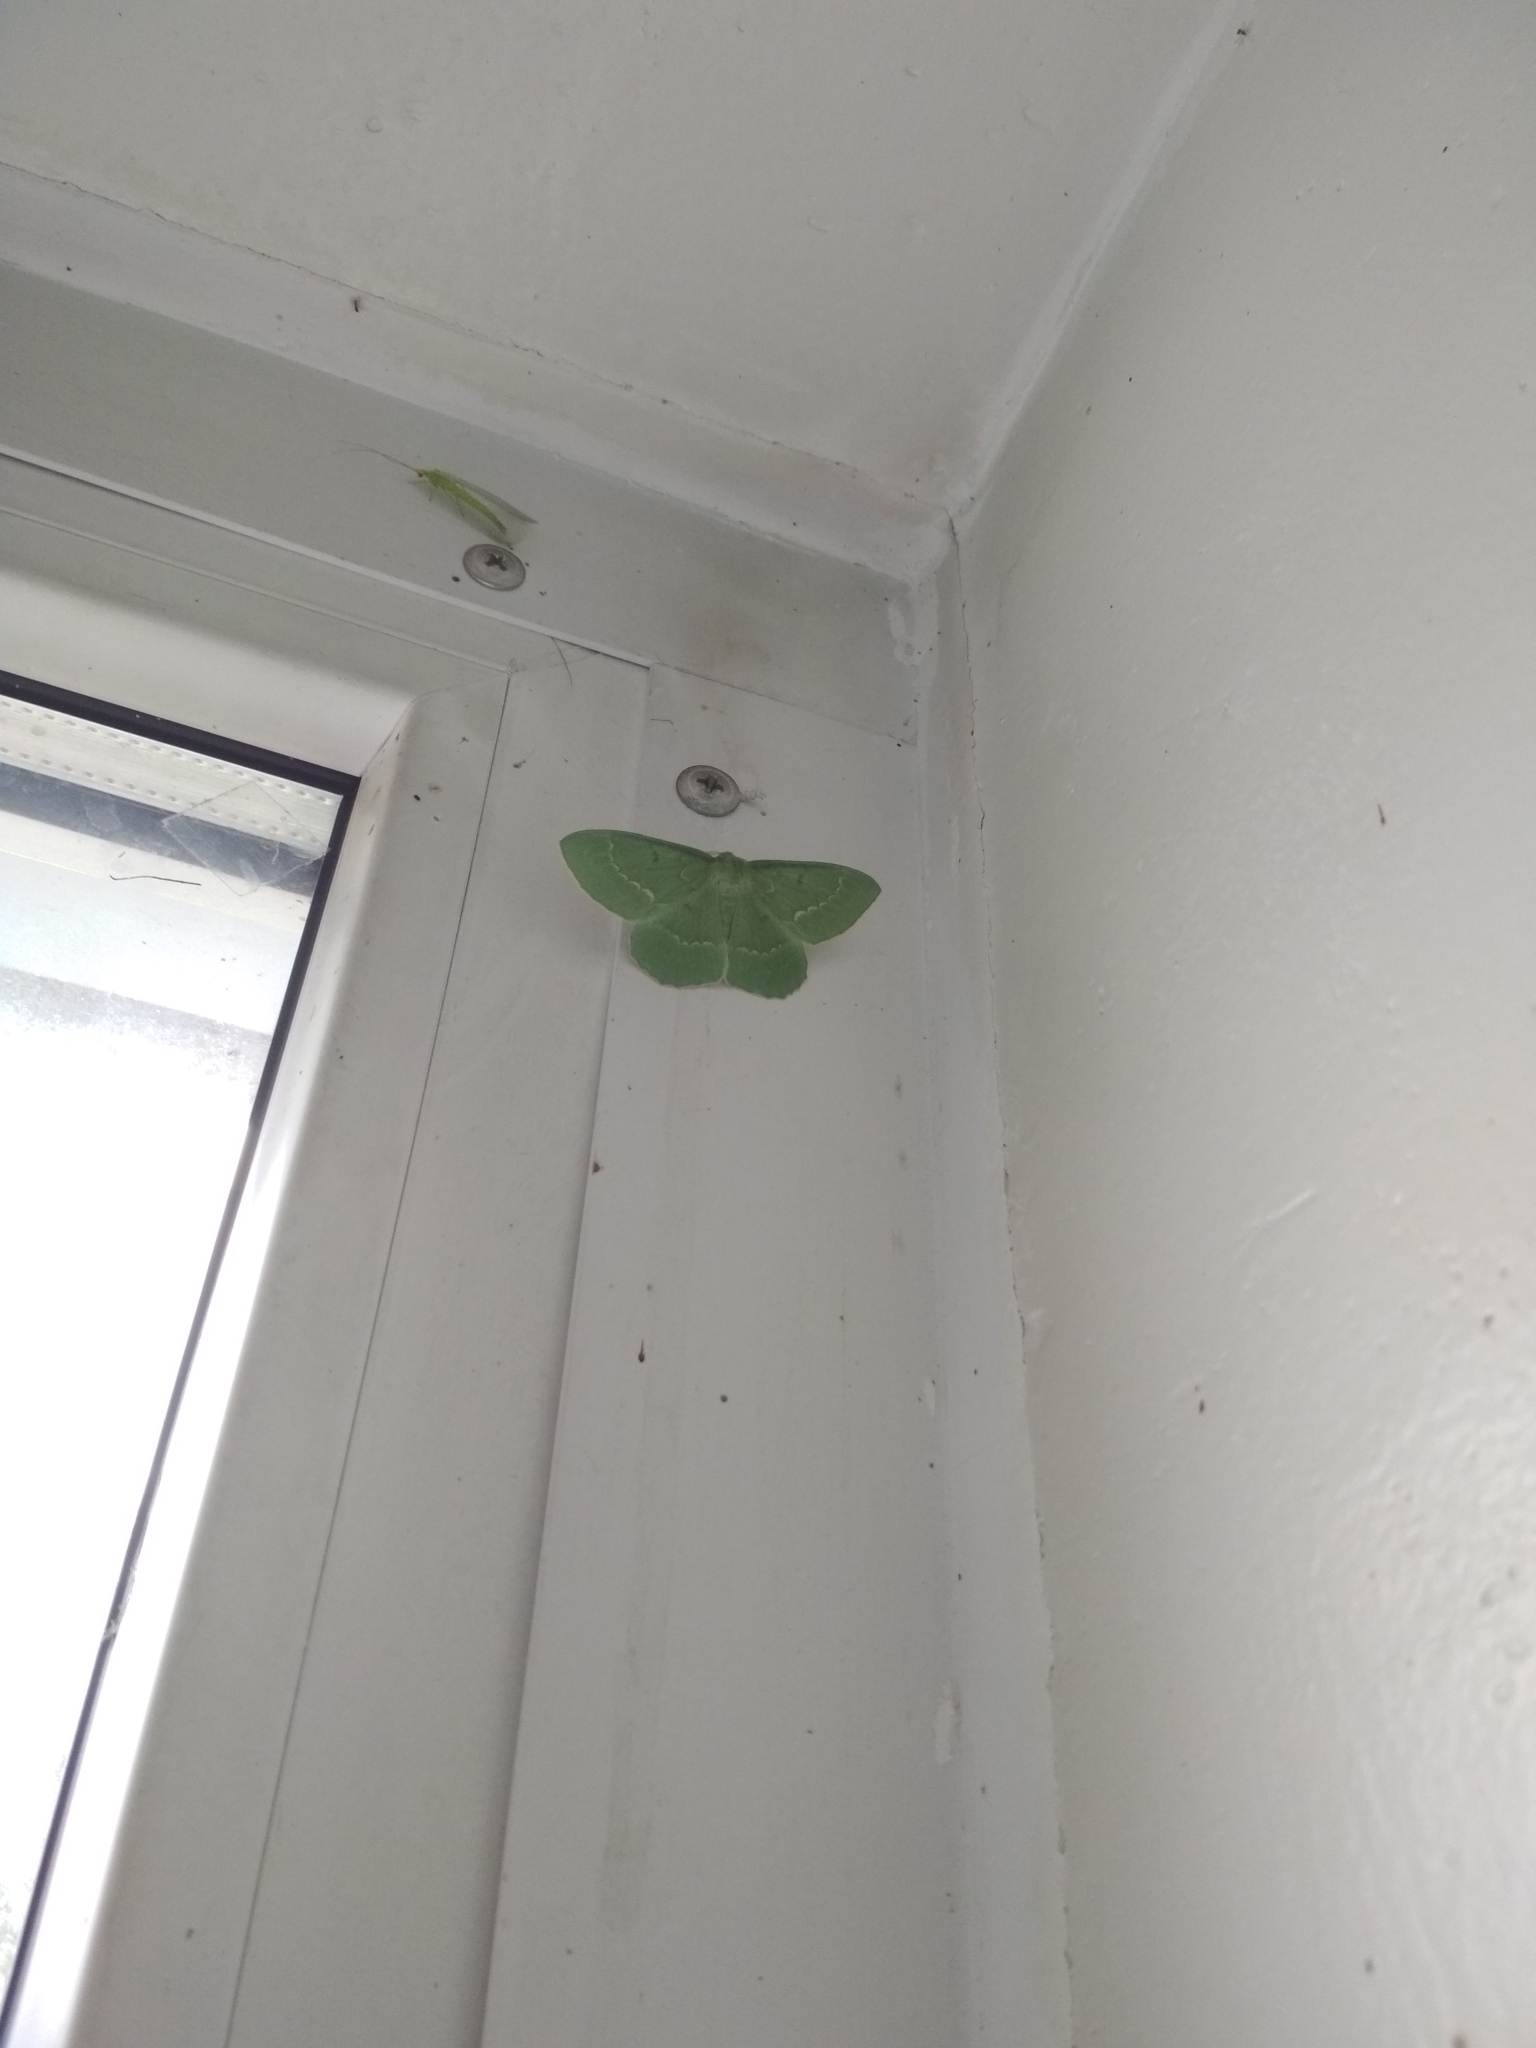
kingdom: Animalia
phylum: Arthropoda
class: Insecta
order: Lepidoptera
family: Geometridae
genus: Geometra
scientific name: Geometra papilionaria
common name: Large emerald
